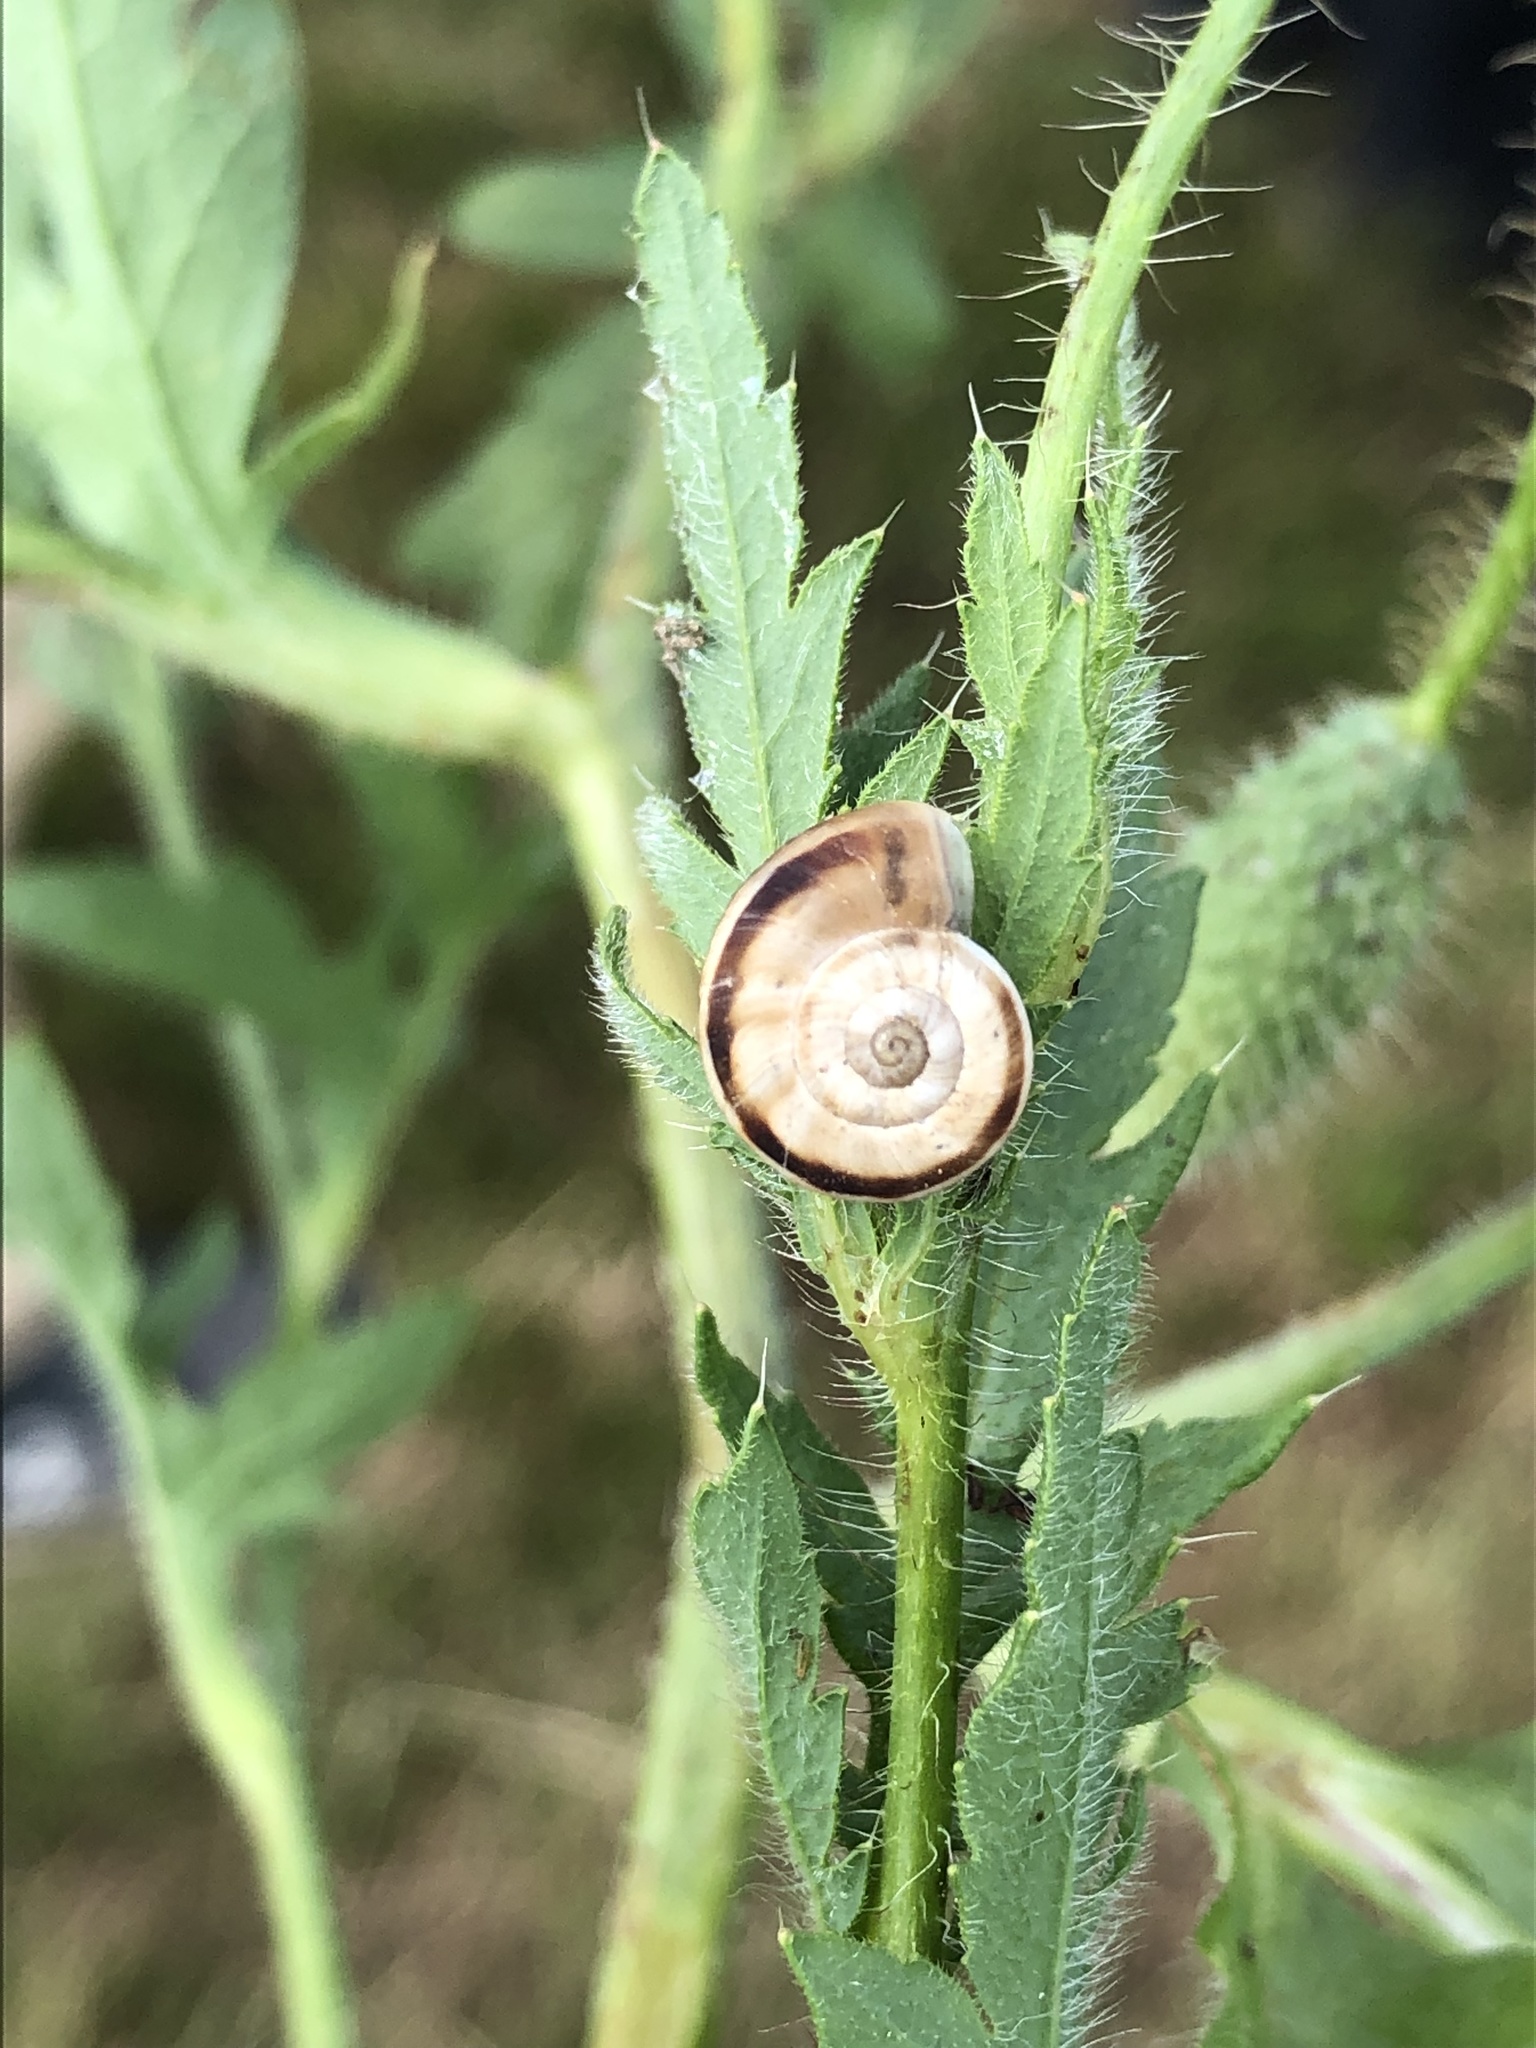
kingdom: Animalia
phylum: Mollusca
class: Gastropoda
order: Stylommatophora
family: Geomitridae
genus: Xerolenta
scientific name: Xerolenta obvia
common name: White heath snail
